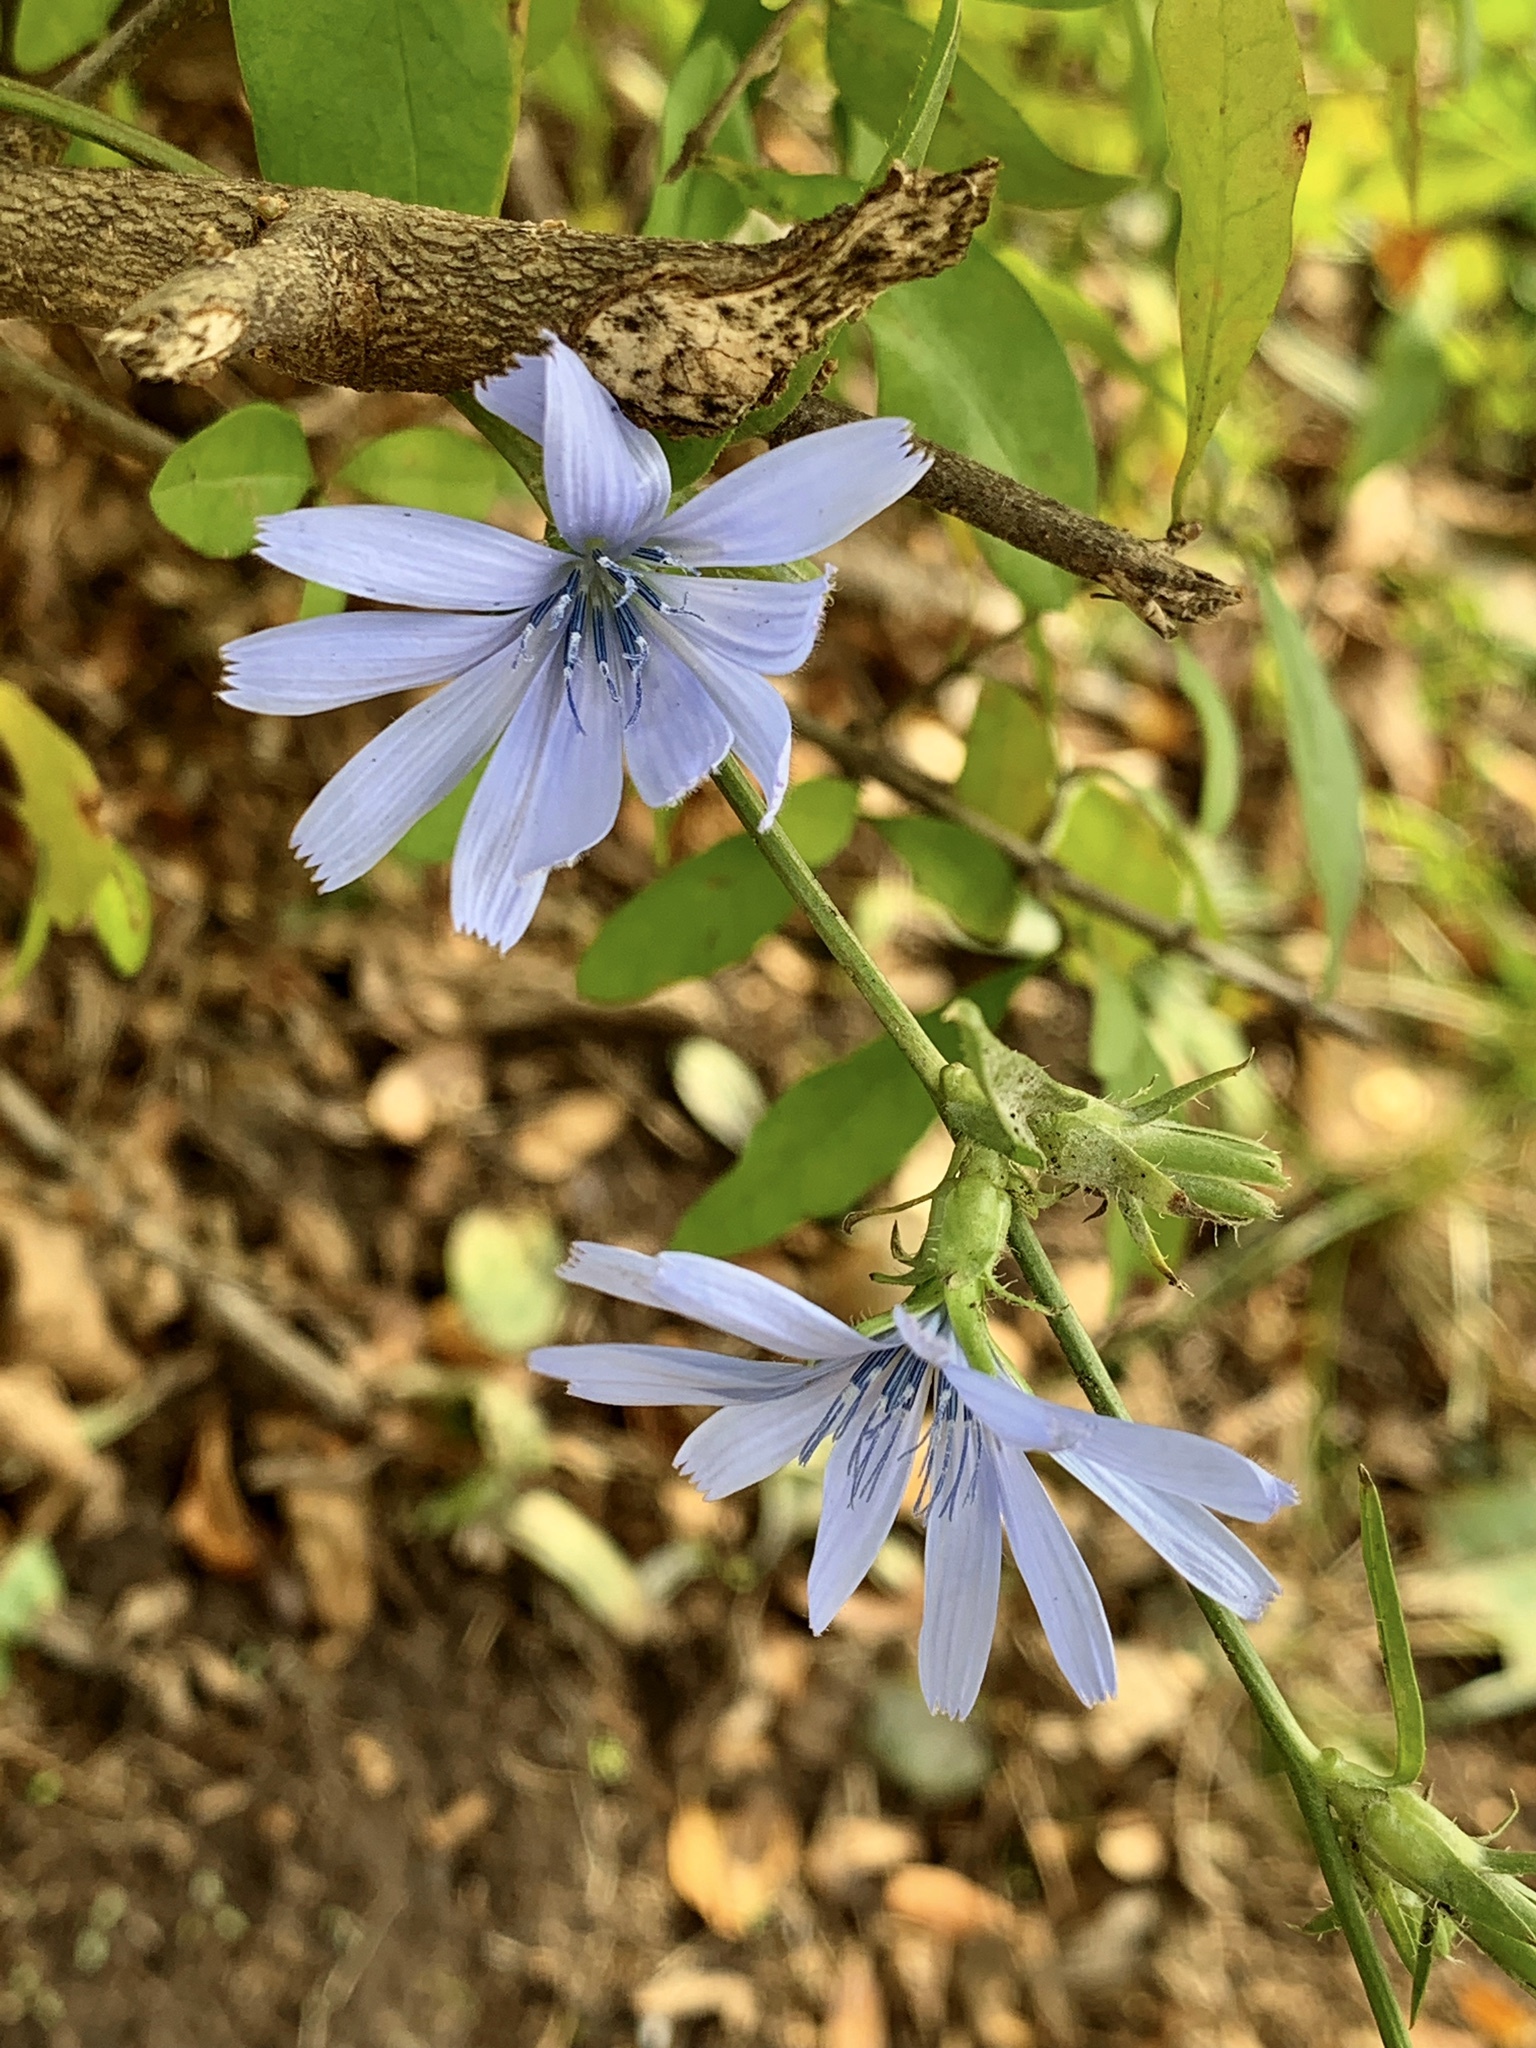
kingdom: Plantae
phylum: Tracheophyta
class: Magnoliopsida
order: Asterales
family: Asteraceae
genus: Cichorium
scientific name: Cichorium intybus
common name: Chicory
